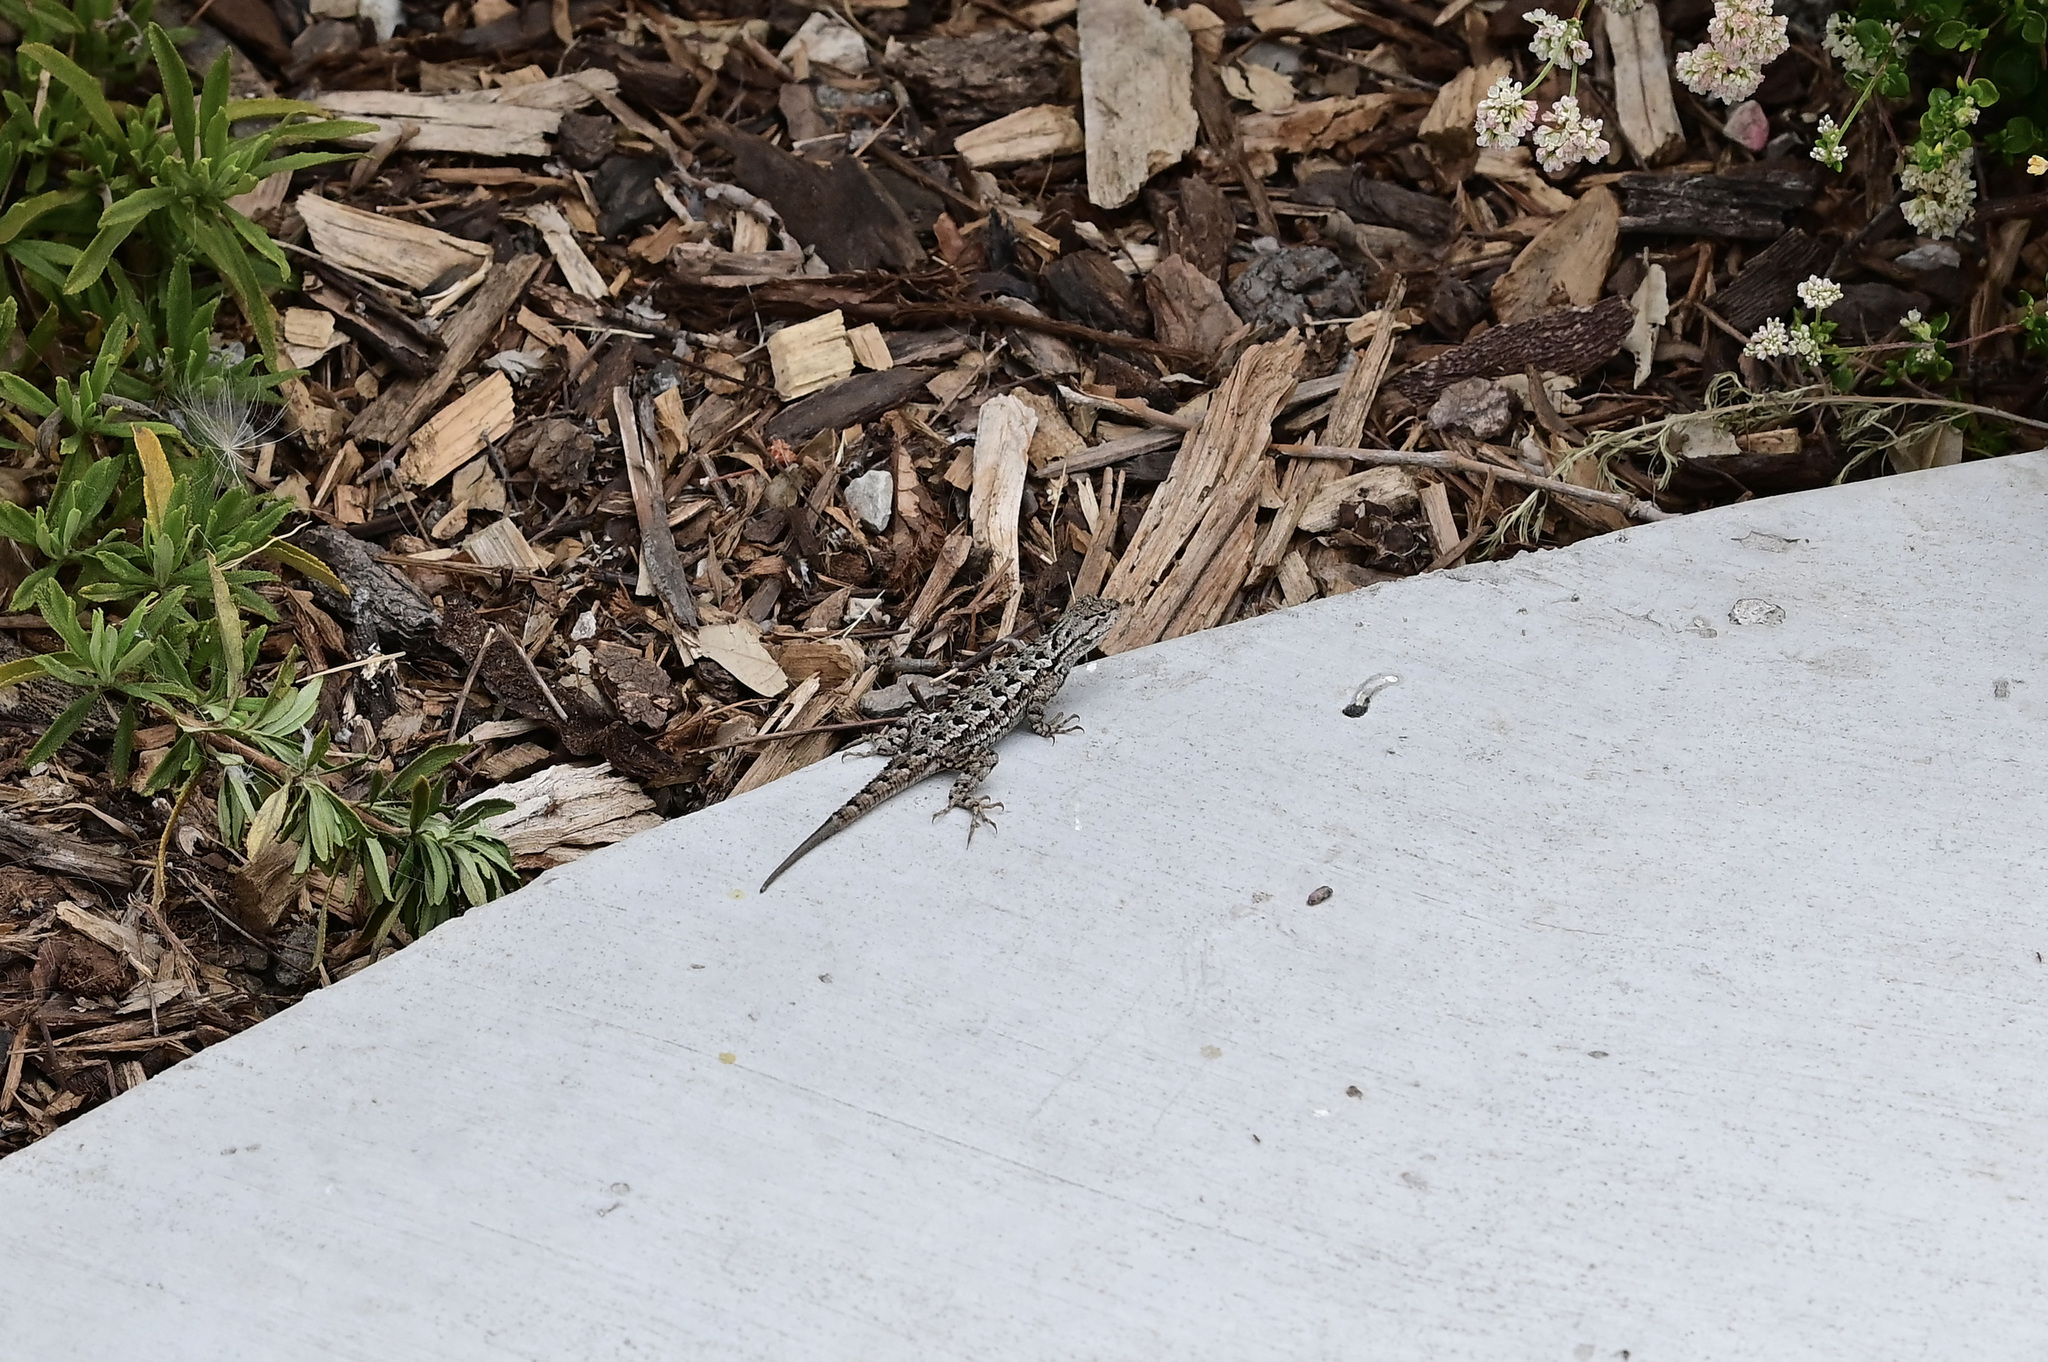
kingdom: Animalia
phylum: Chordata
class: Squamata
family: Phrynosomatidae
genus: Sceloporus
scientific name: Sceloporus occidentalis
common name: Western fence lizard
